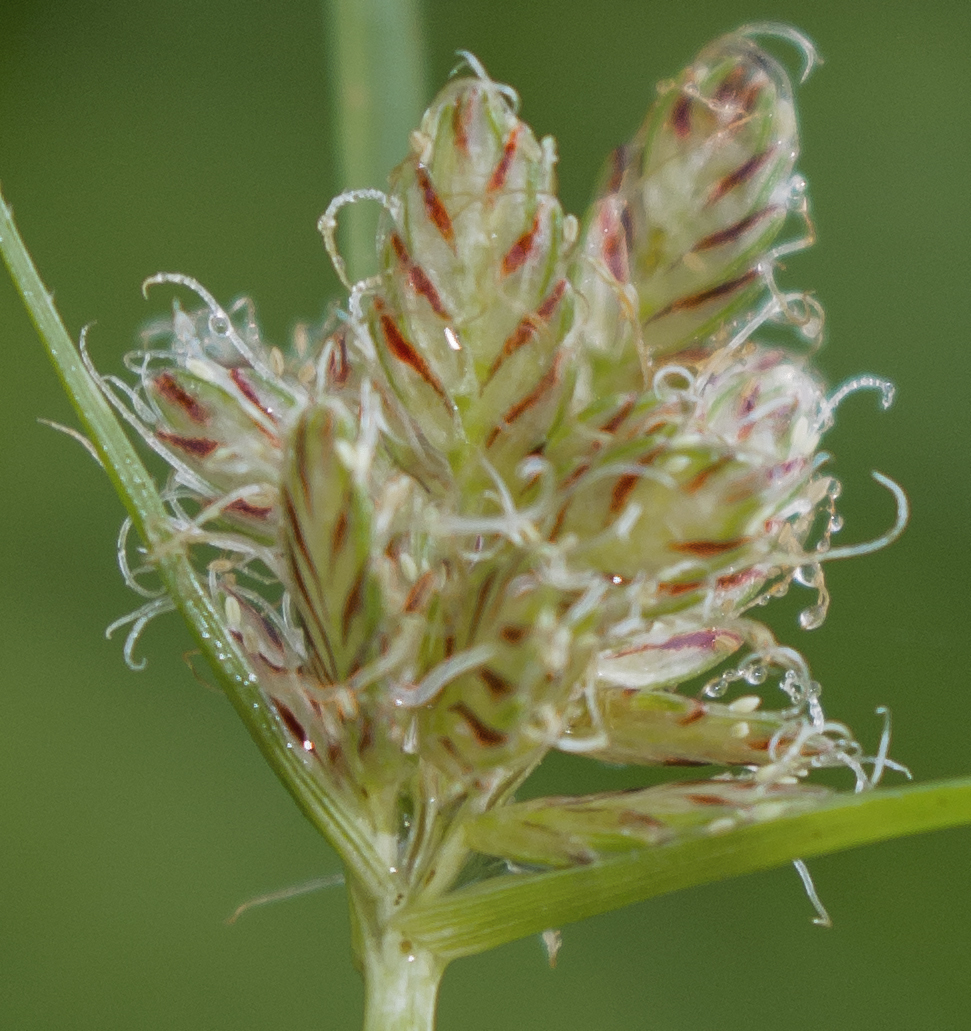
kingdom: Plantae
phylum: Tracheophyta
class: Liliopsida
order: Poales
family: Cyperaceae
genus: Cyperus
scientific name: Cyperus diandrus
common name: Low cyperus
